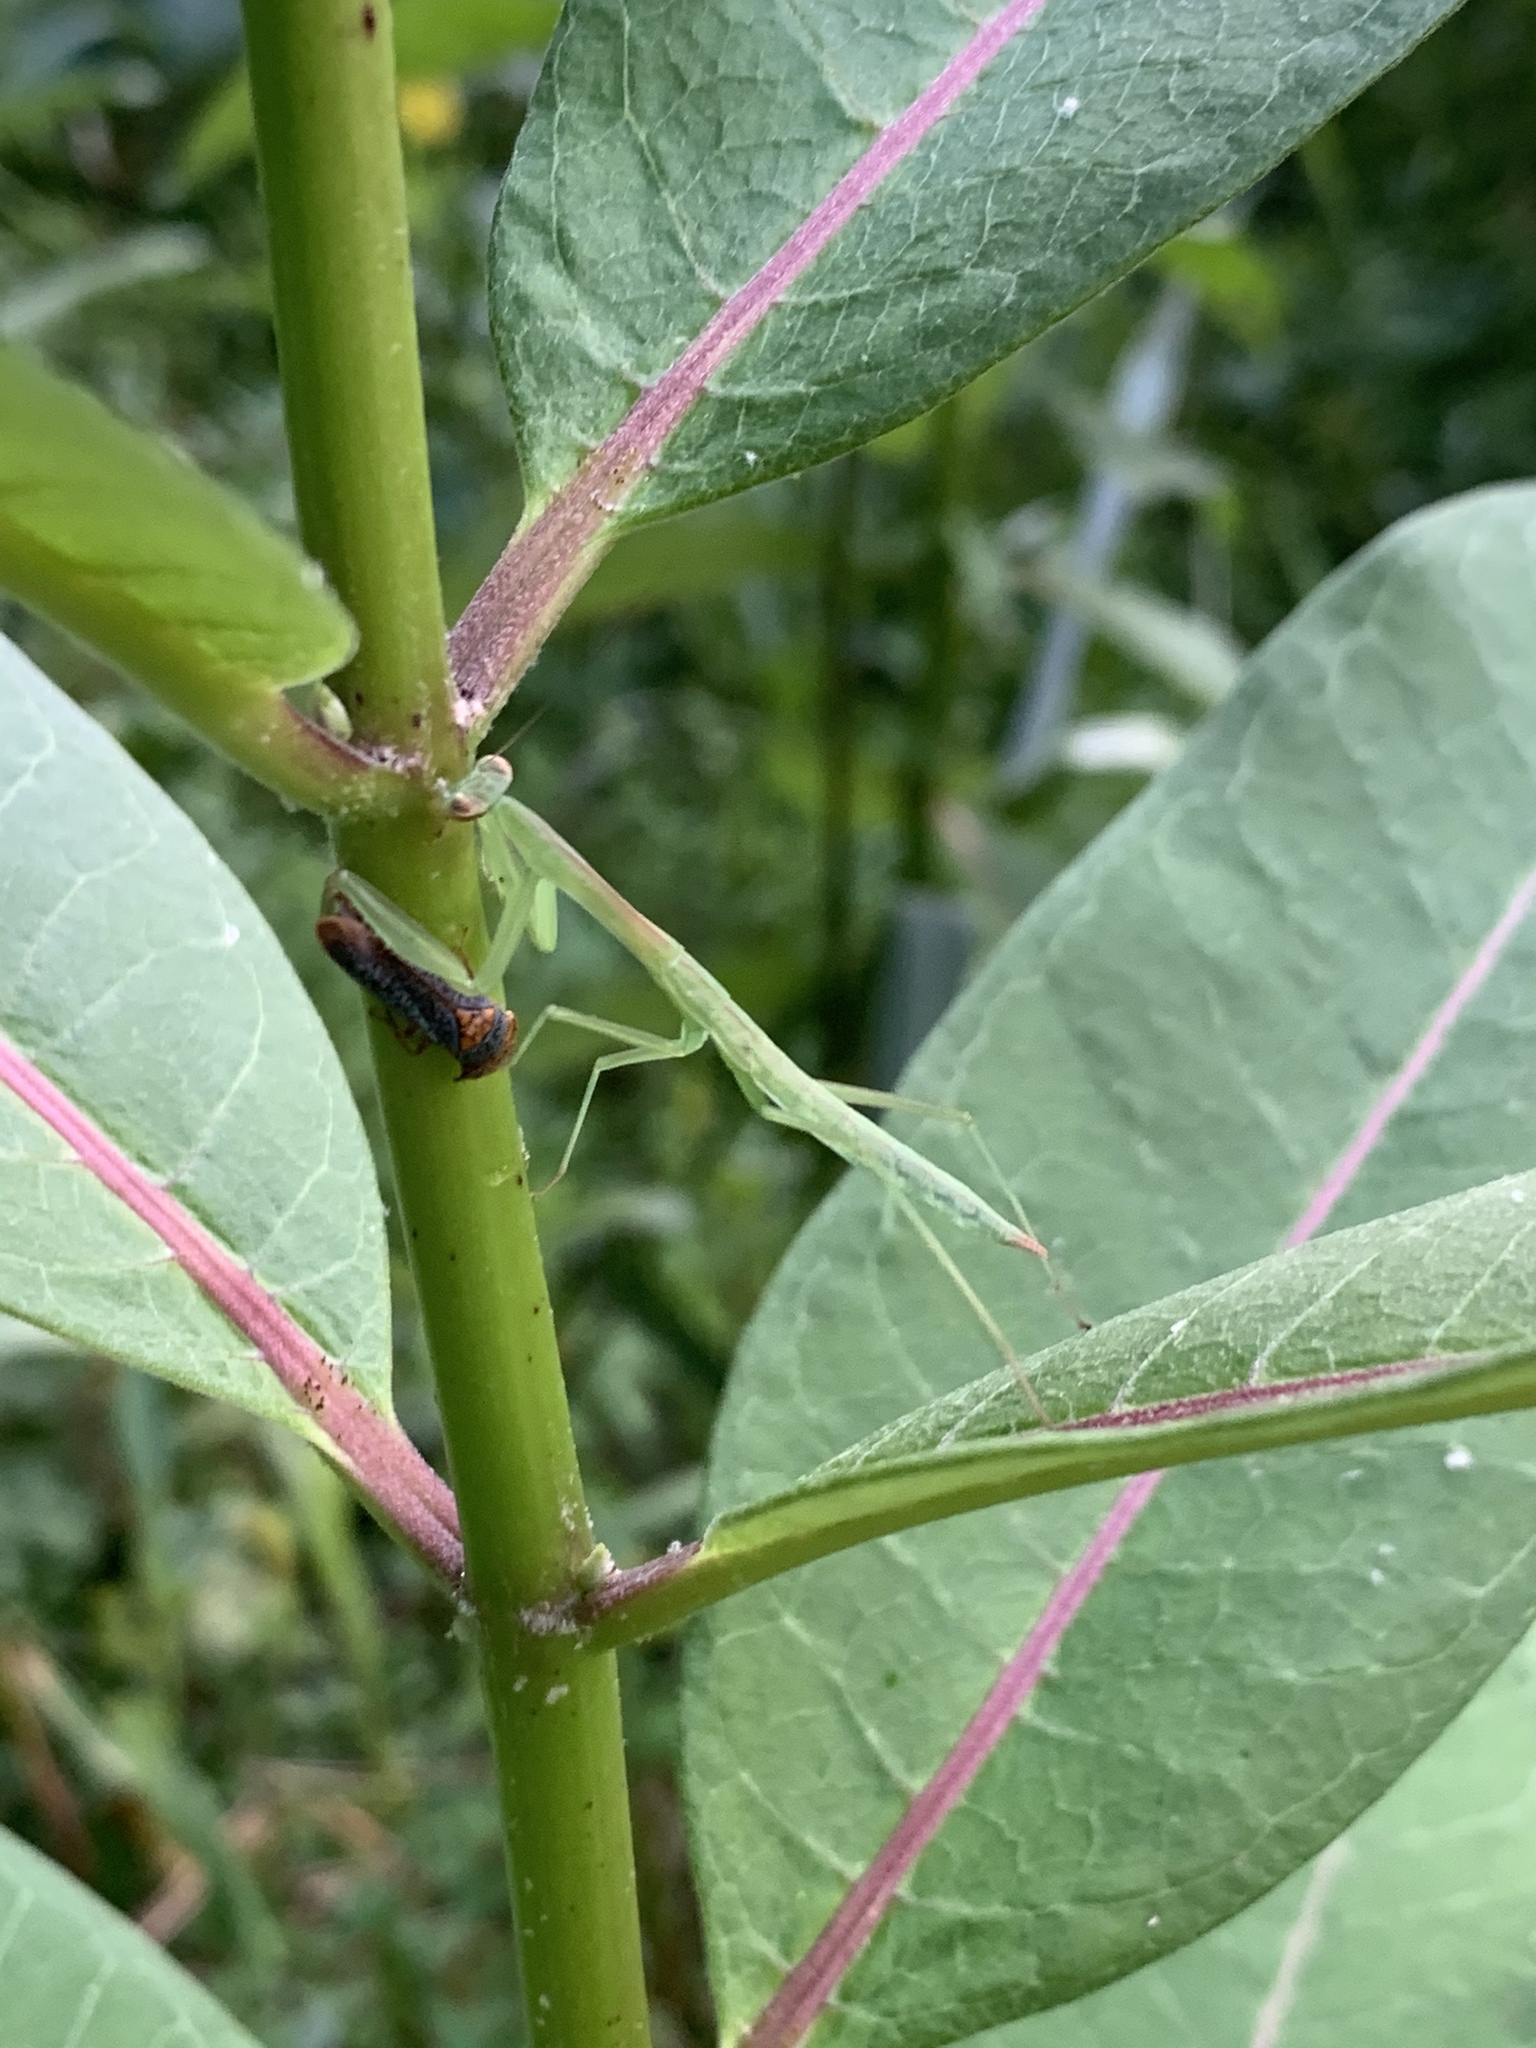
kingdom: Animalia
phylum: Arthropoda
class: Insecta
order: Hemiptera
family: Cicadellidae
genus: Oncometopia
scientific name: Oncometopia orbona
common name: Broad-headed sharpshooter
